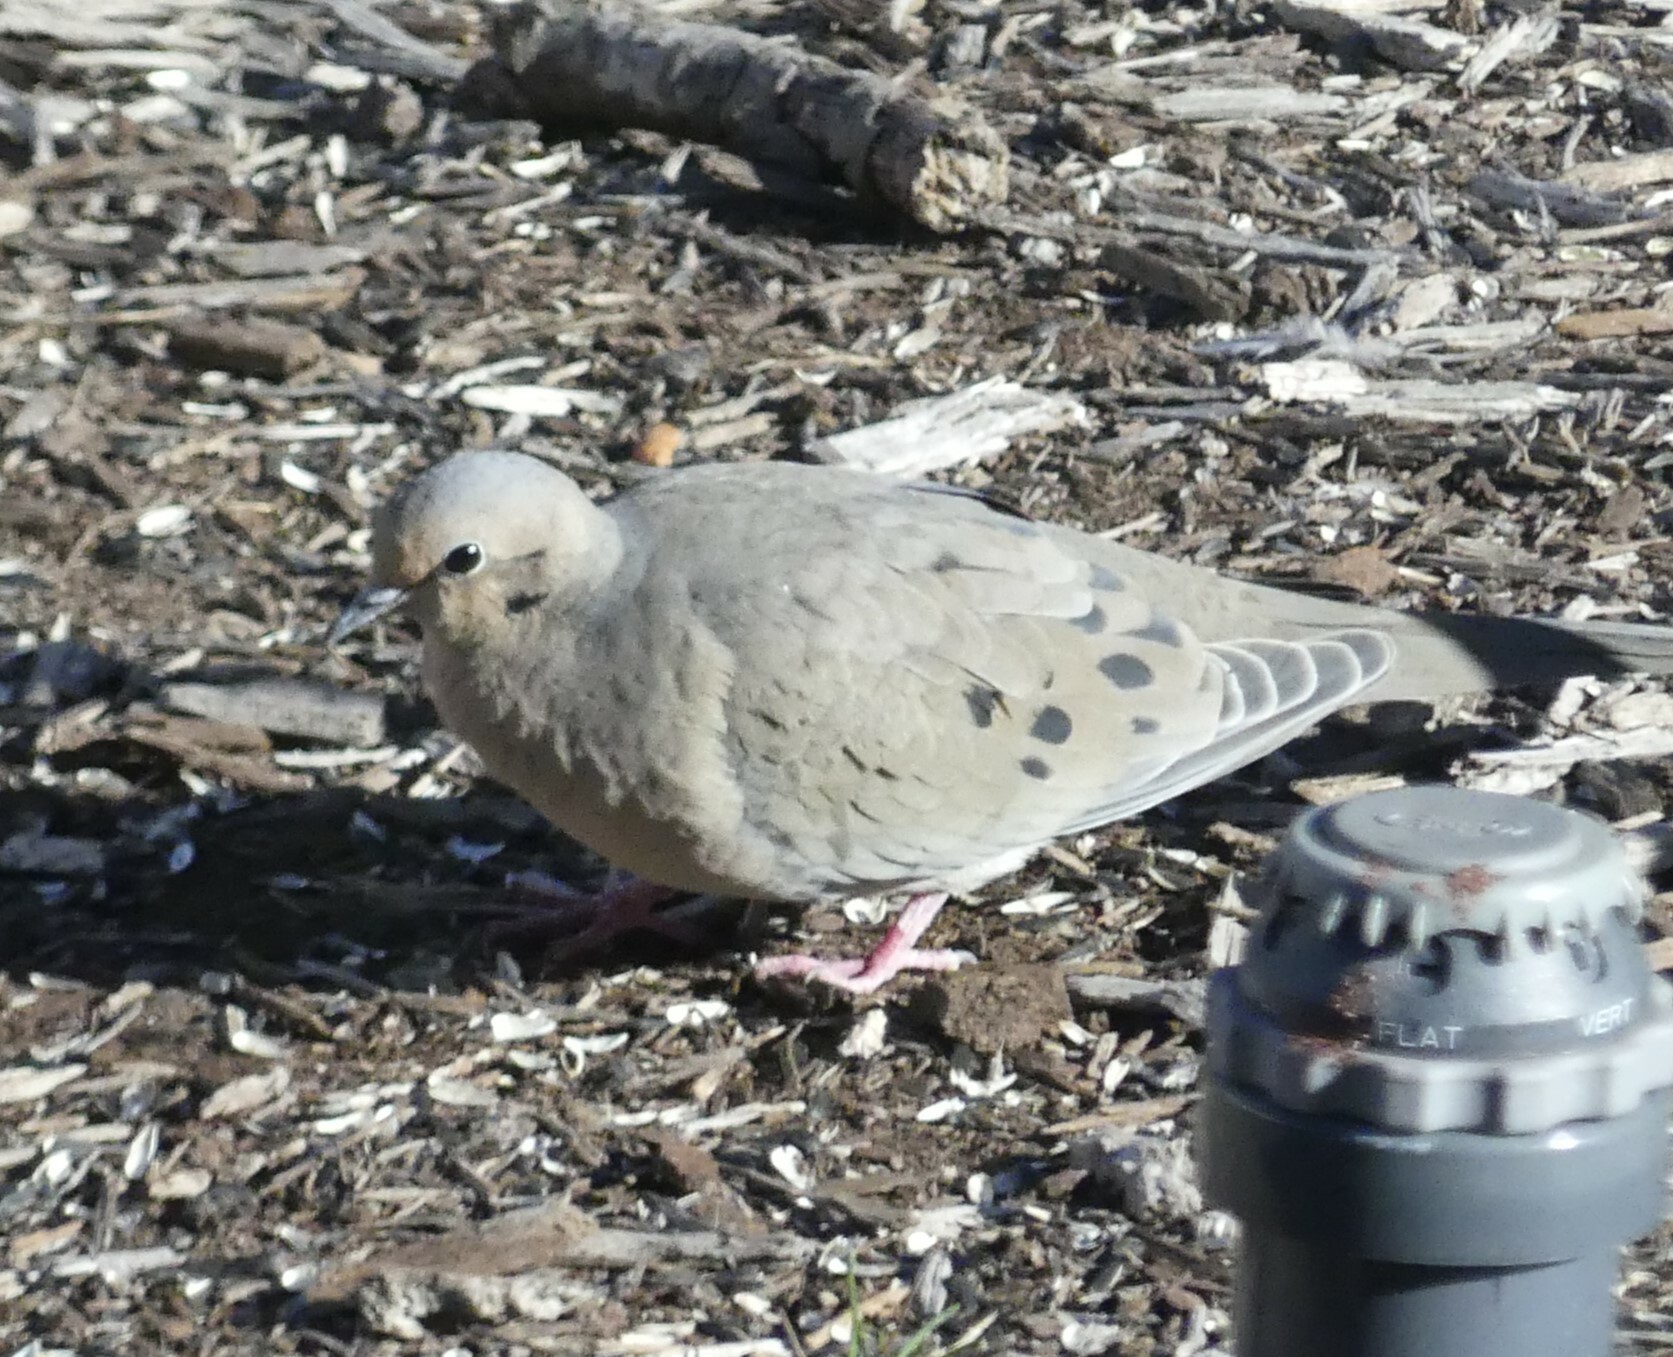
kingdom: Animalia
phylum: Chordata
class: Aves
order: Columbiformes
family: Columbidae
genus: Zenaida
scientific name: Zenaida macroura
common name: Mourning dove
